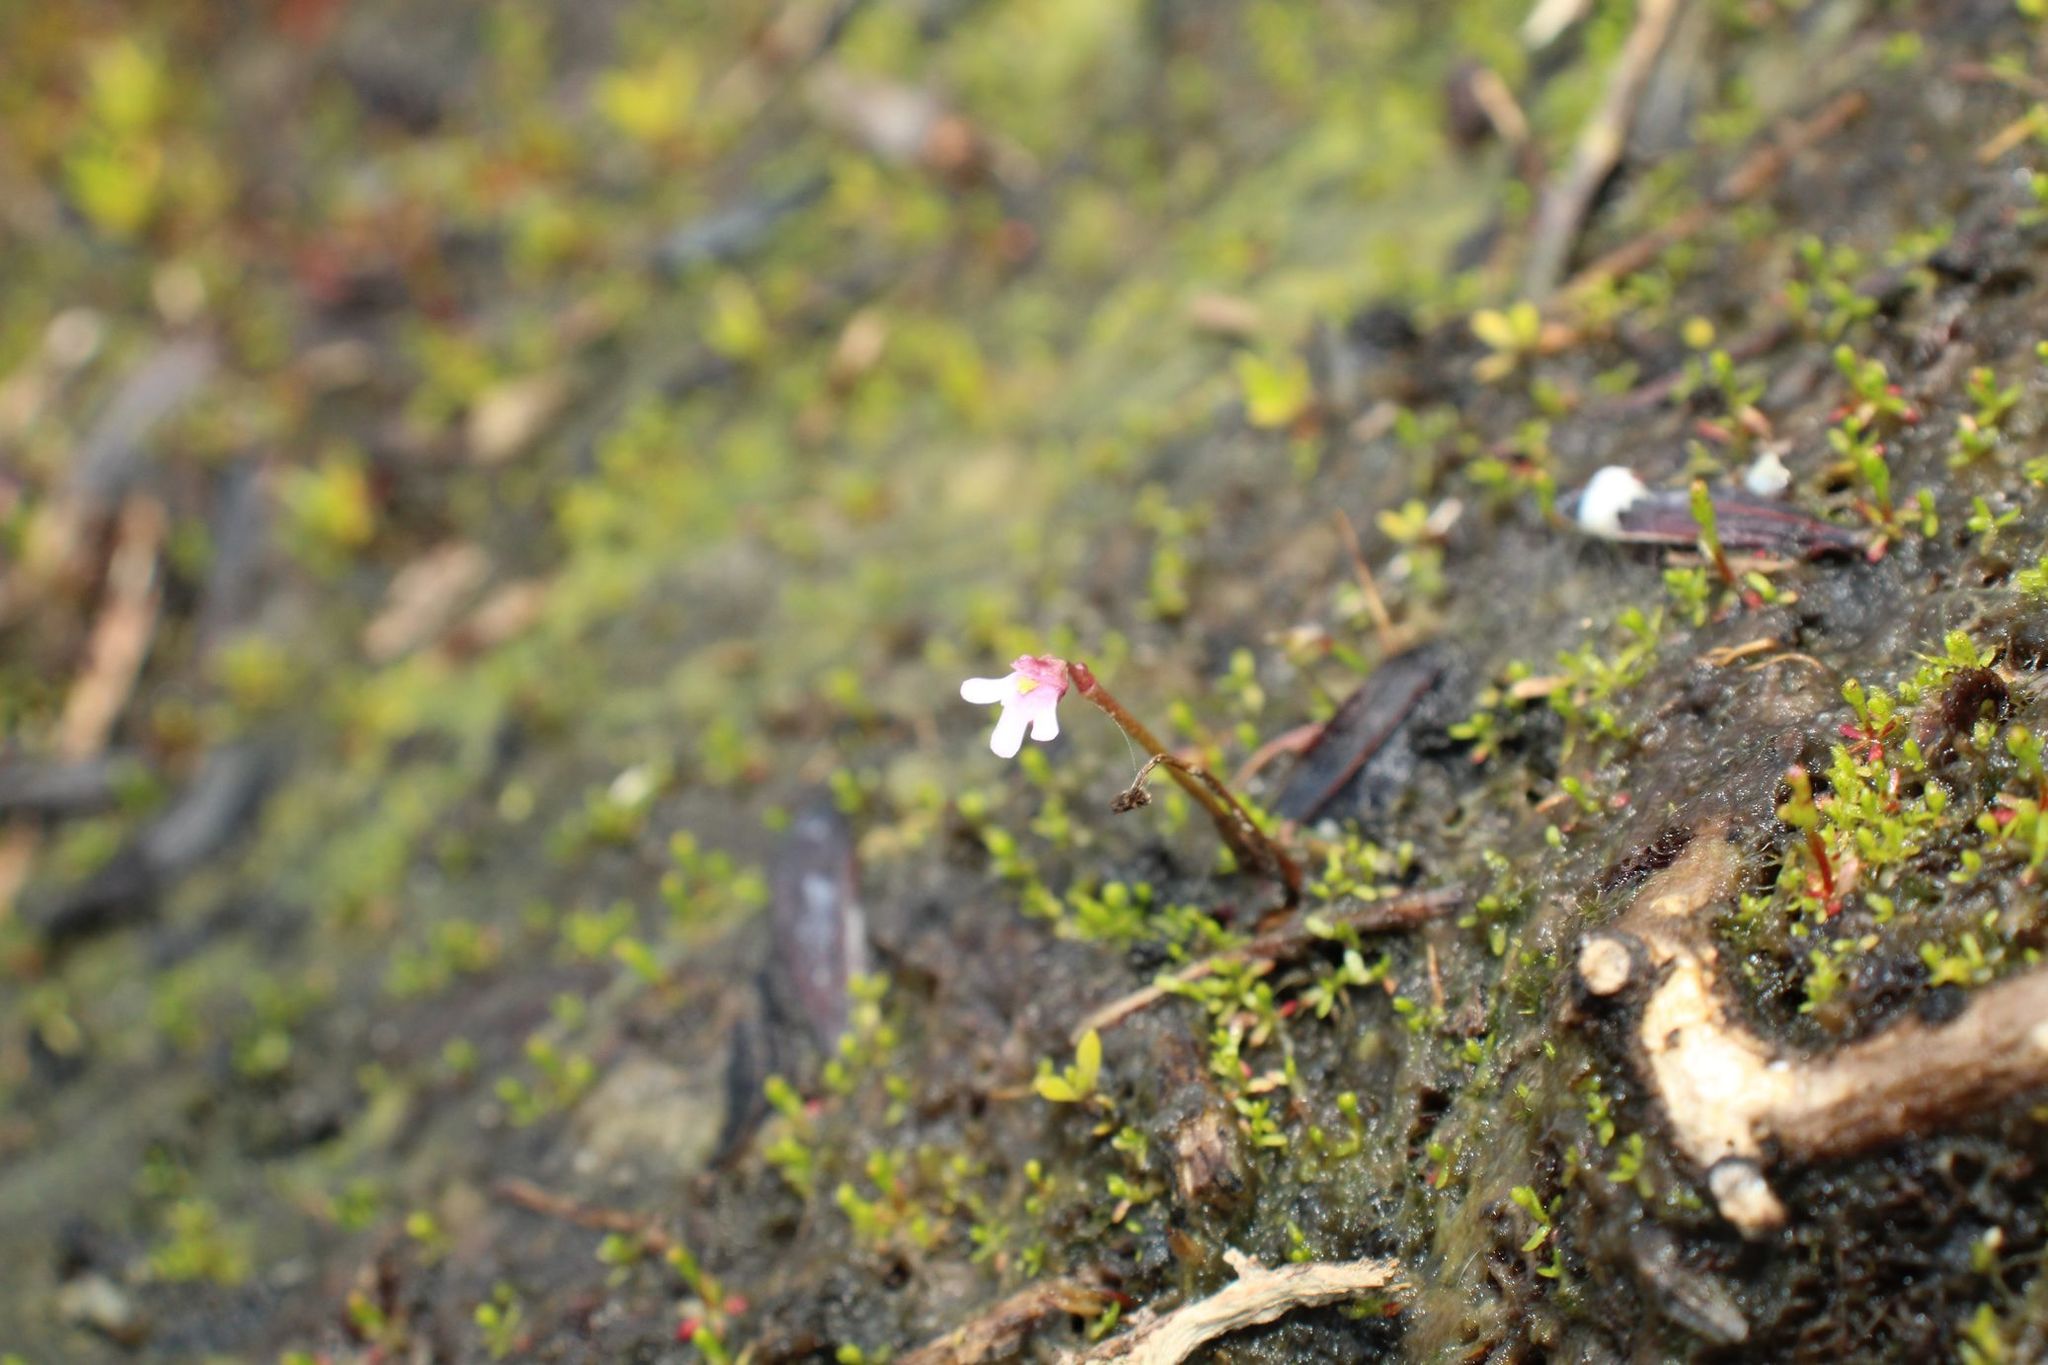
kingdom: Plantae
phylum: Tracheophyta
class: Magnoliopsida
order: Lamiales
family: Lentibulariaceae
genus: Utricularia
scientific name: Utricularia tenella
